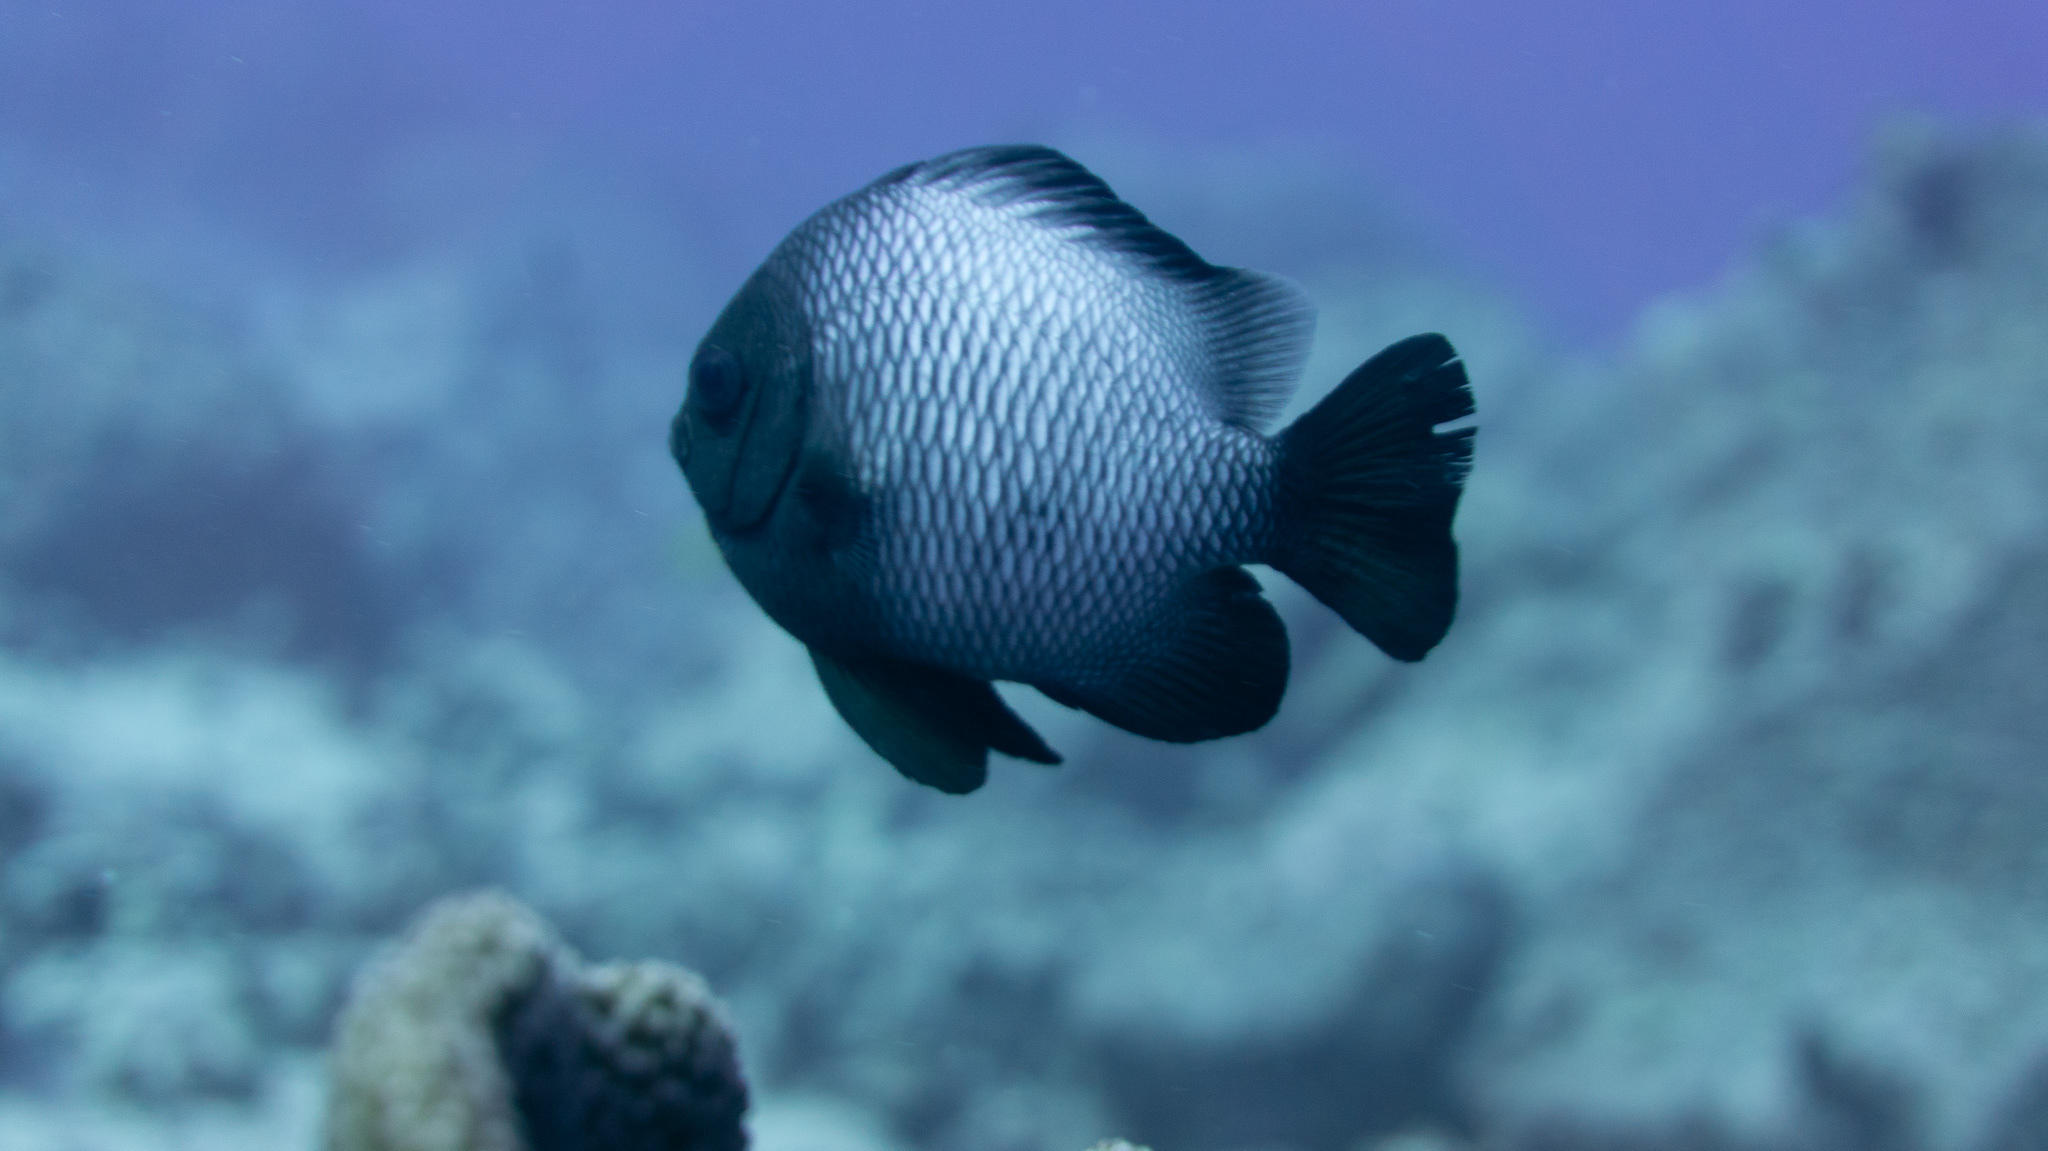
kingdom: Animalia
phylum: Chordata
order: Perciformes
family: Pomacentridae
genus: Dascyllus
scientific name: Dascyllus albisella
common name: Hawaiian dascyllus
